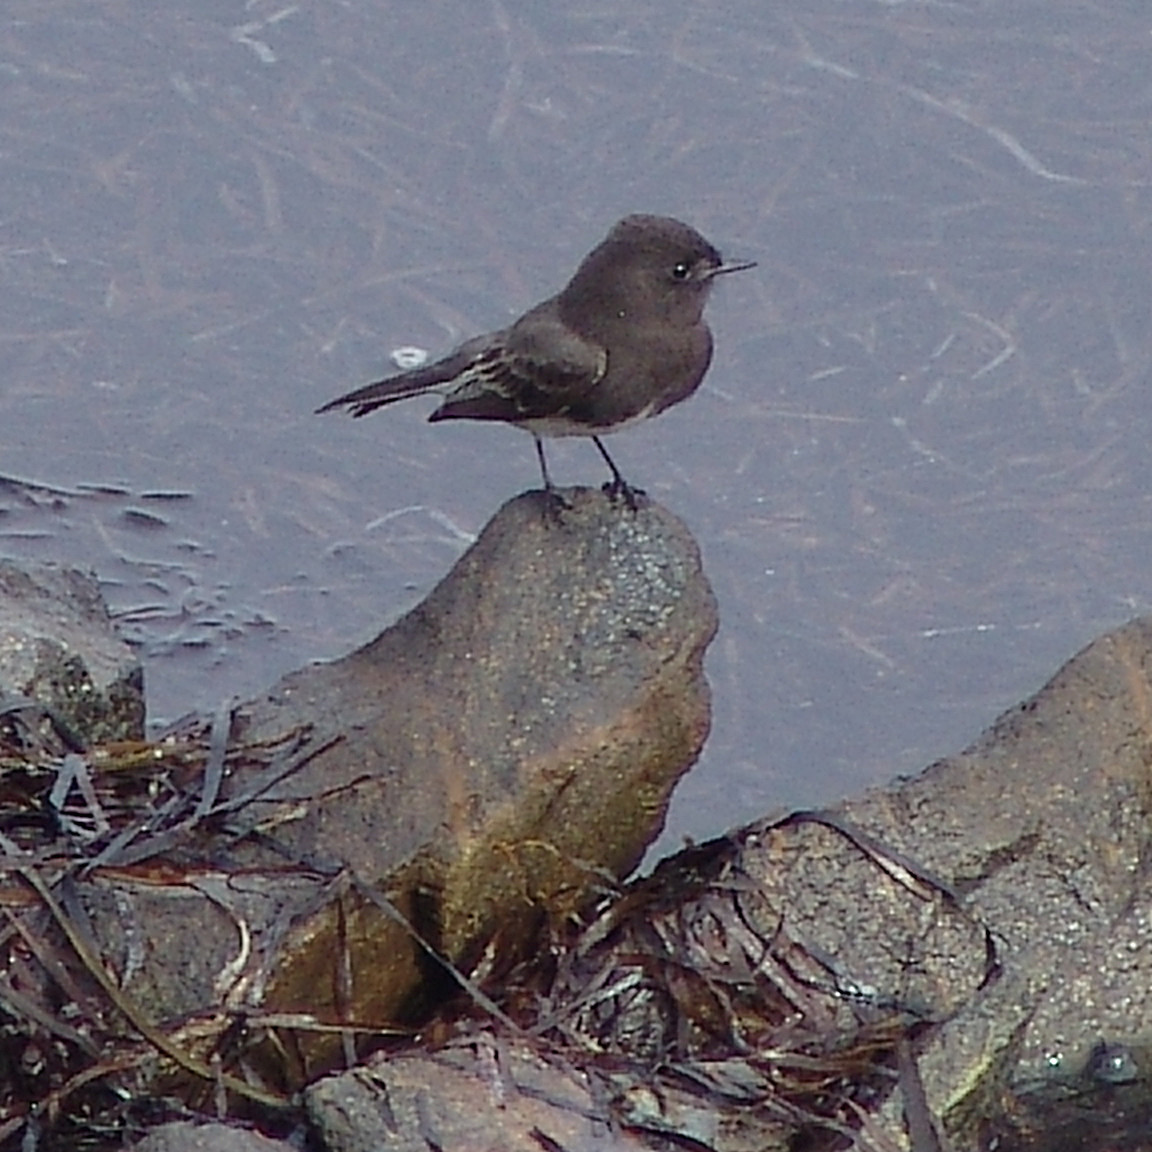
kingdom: Animalia
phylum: Chordata
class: Aves
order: Passeriformes
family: Tyrannidae
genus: Sayornis
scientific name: Sayornis nigricans
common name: Black phoebe
